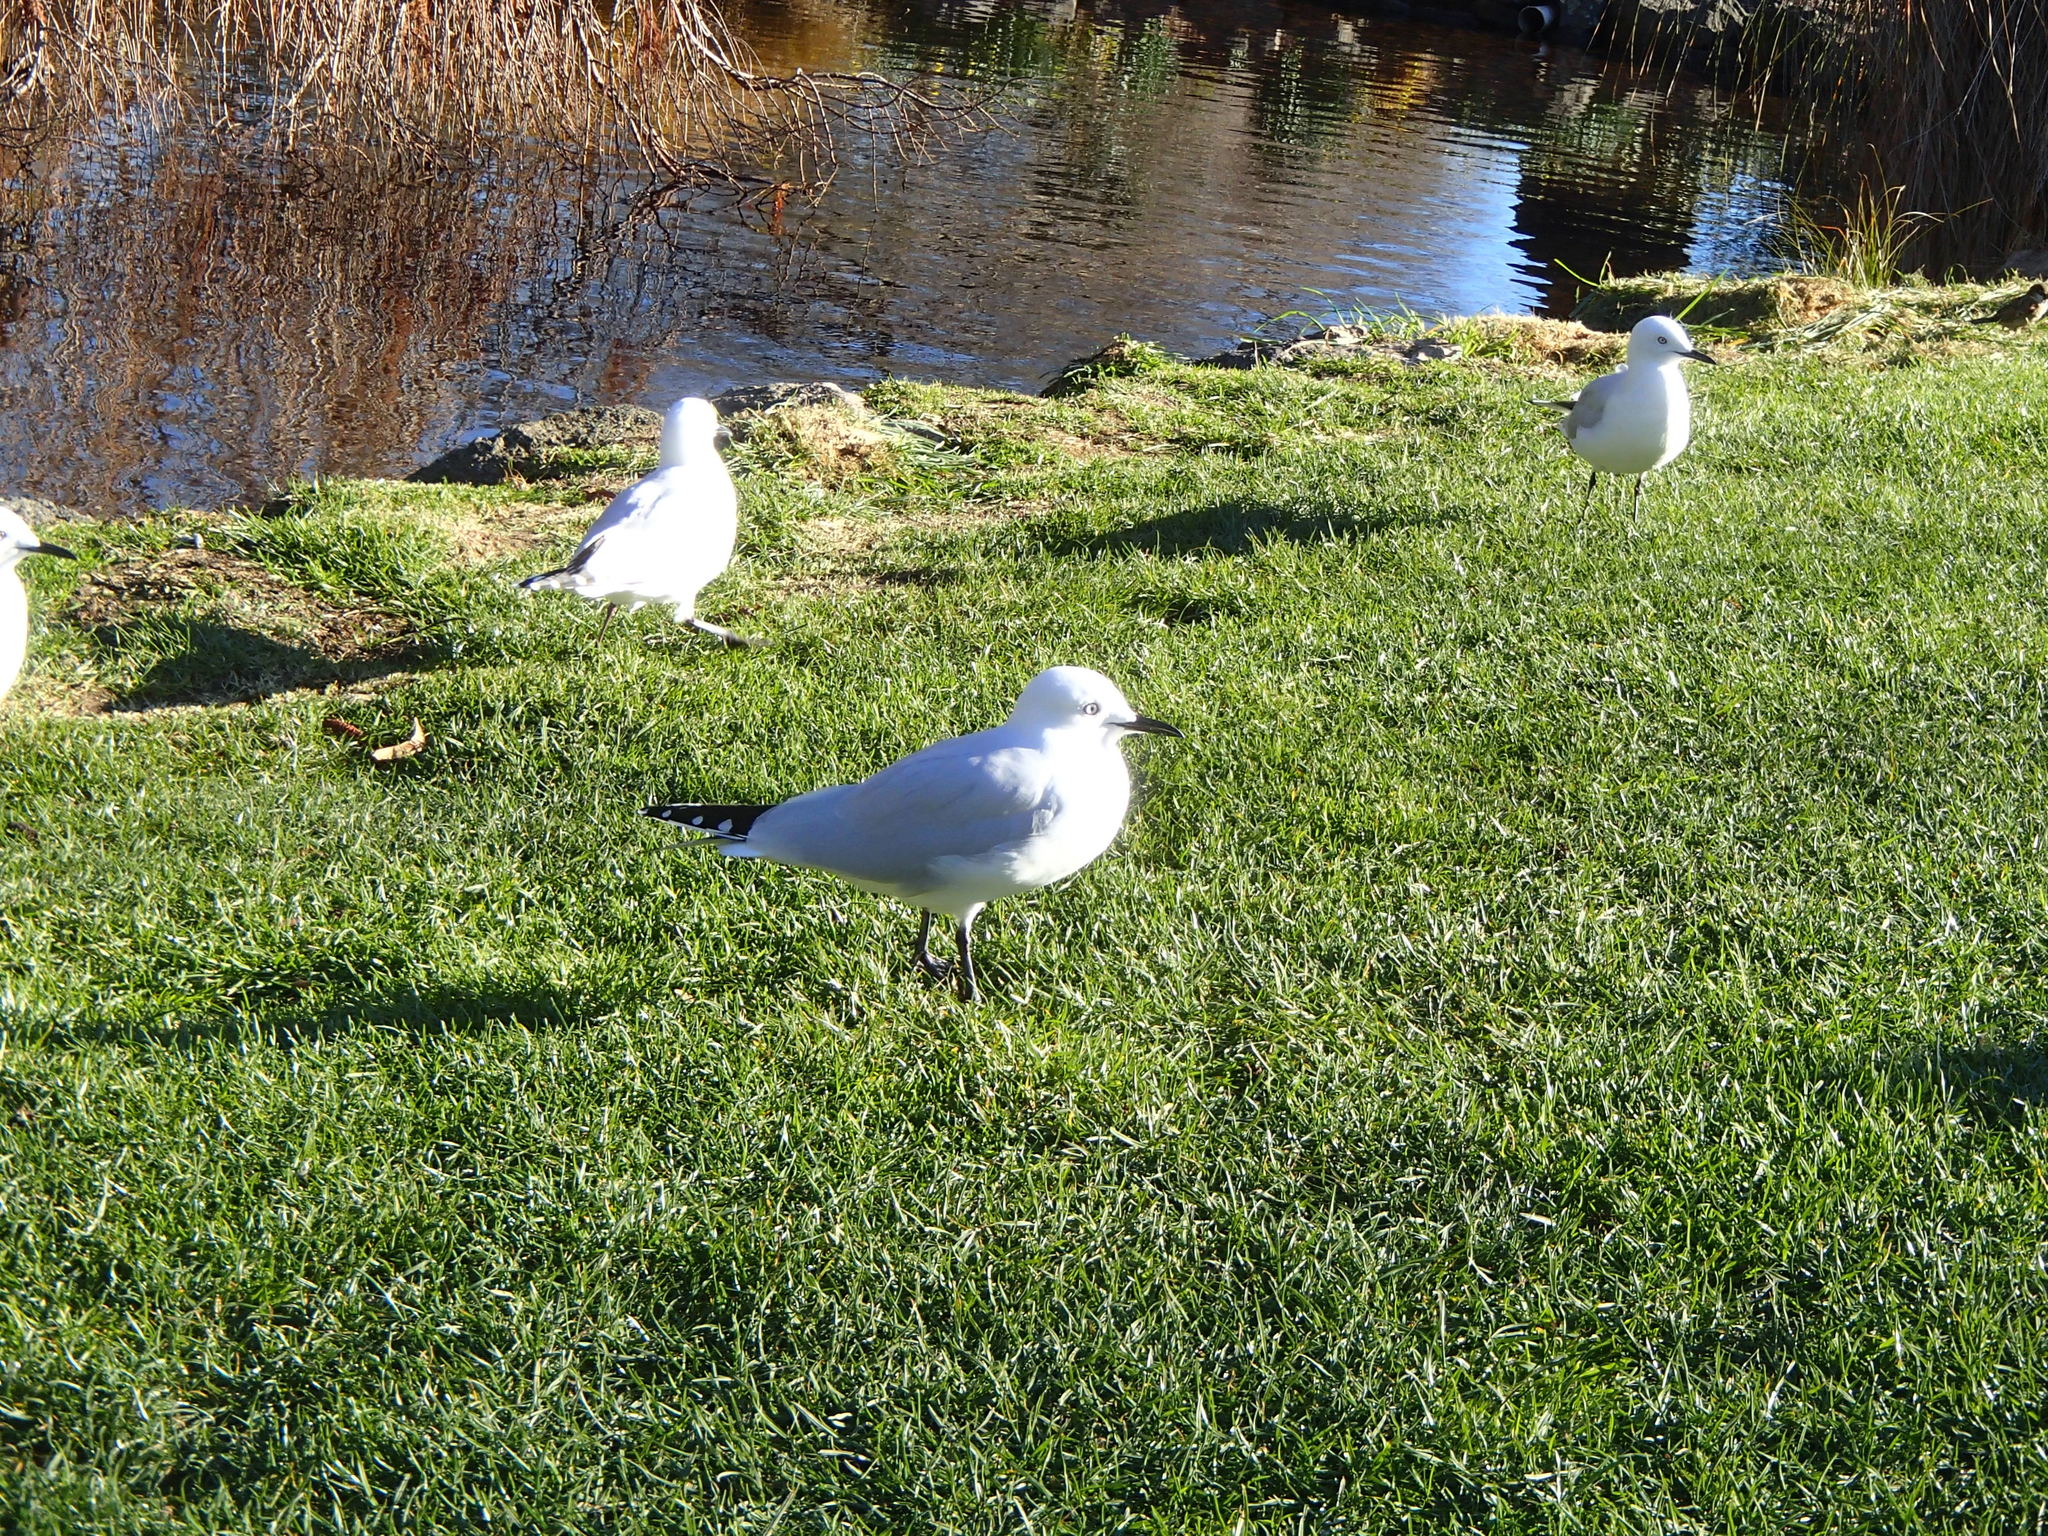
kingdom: Animalia
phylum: Chordata
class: Aves
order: Charadriiformes
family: Laridae
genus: Chroicocephalus
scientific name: Chroicocephalus bulleri
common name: Black-billed gull
